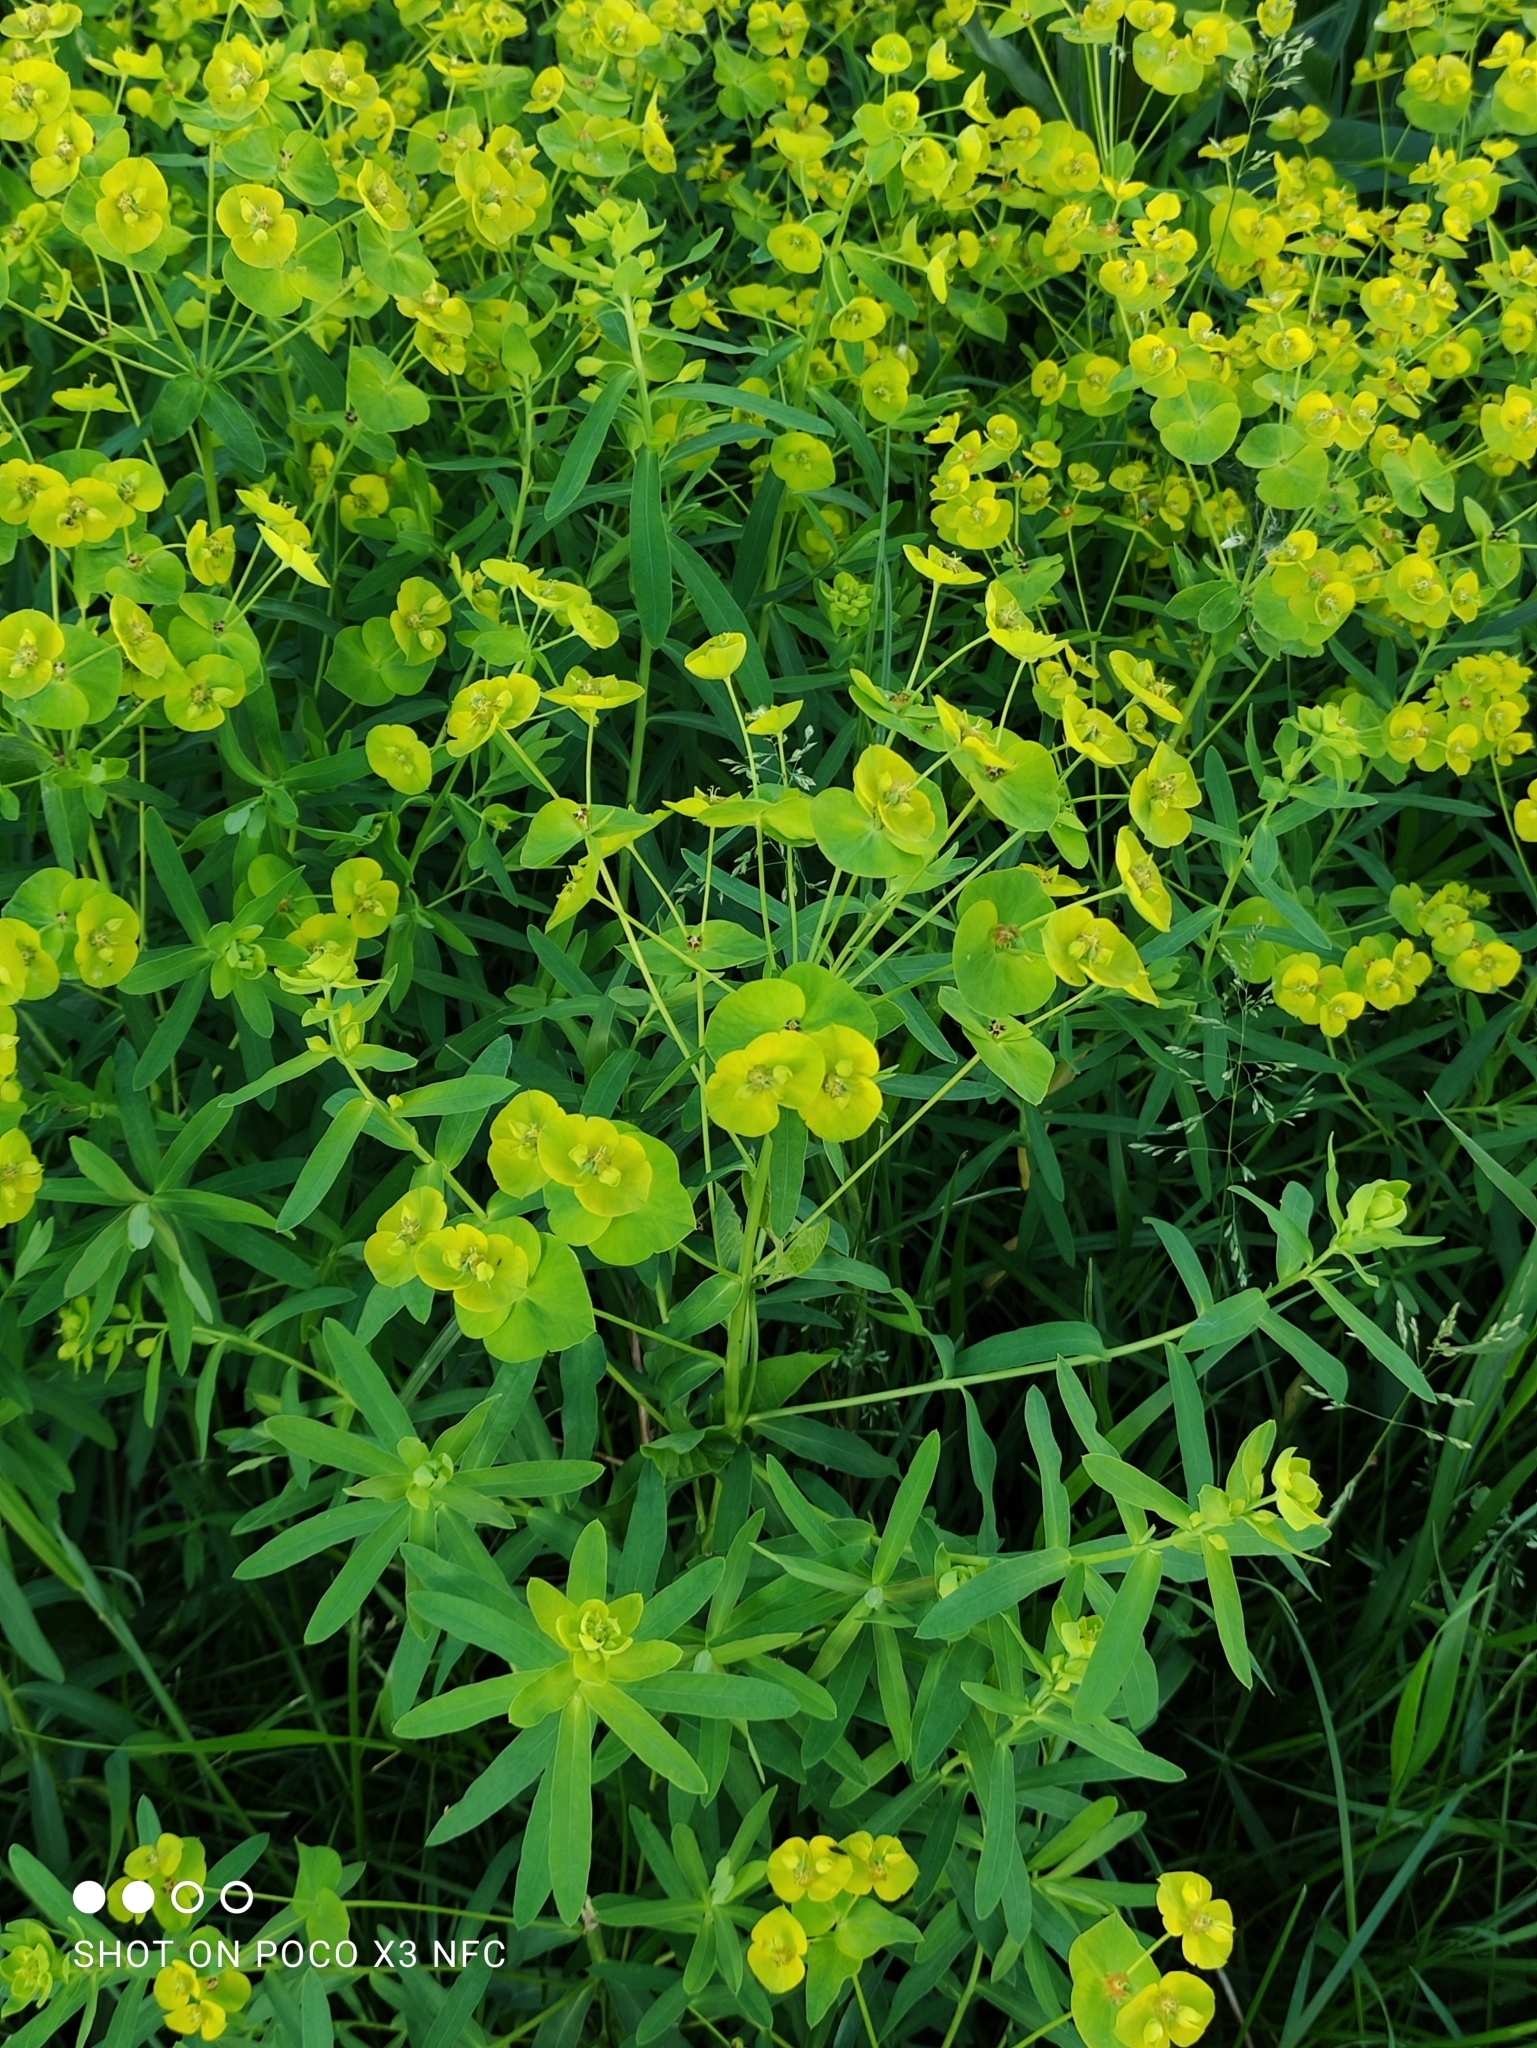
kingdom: Plantae
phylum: Tracheophyta
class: Magnoliopsida
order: Malpighiales
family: Euphorbiaceae
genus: Euphorbia
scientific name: Euphorbia virgata
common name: Leafy spurge
